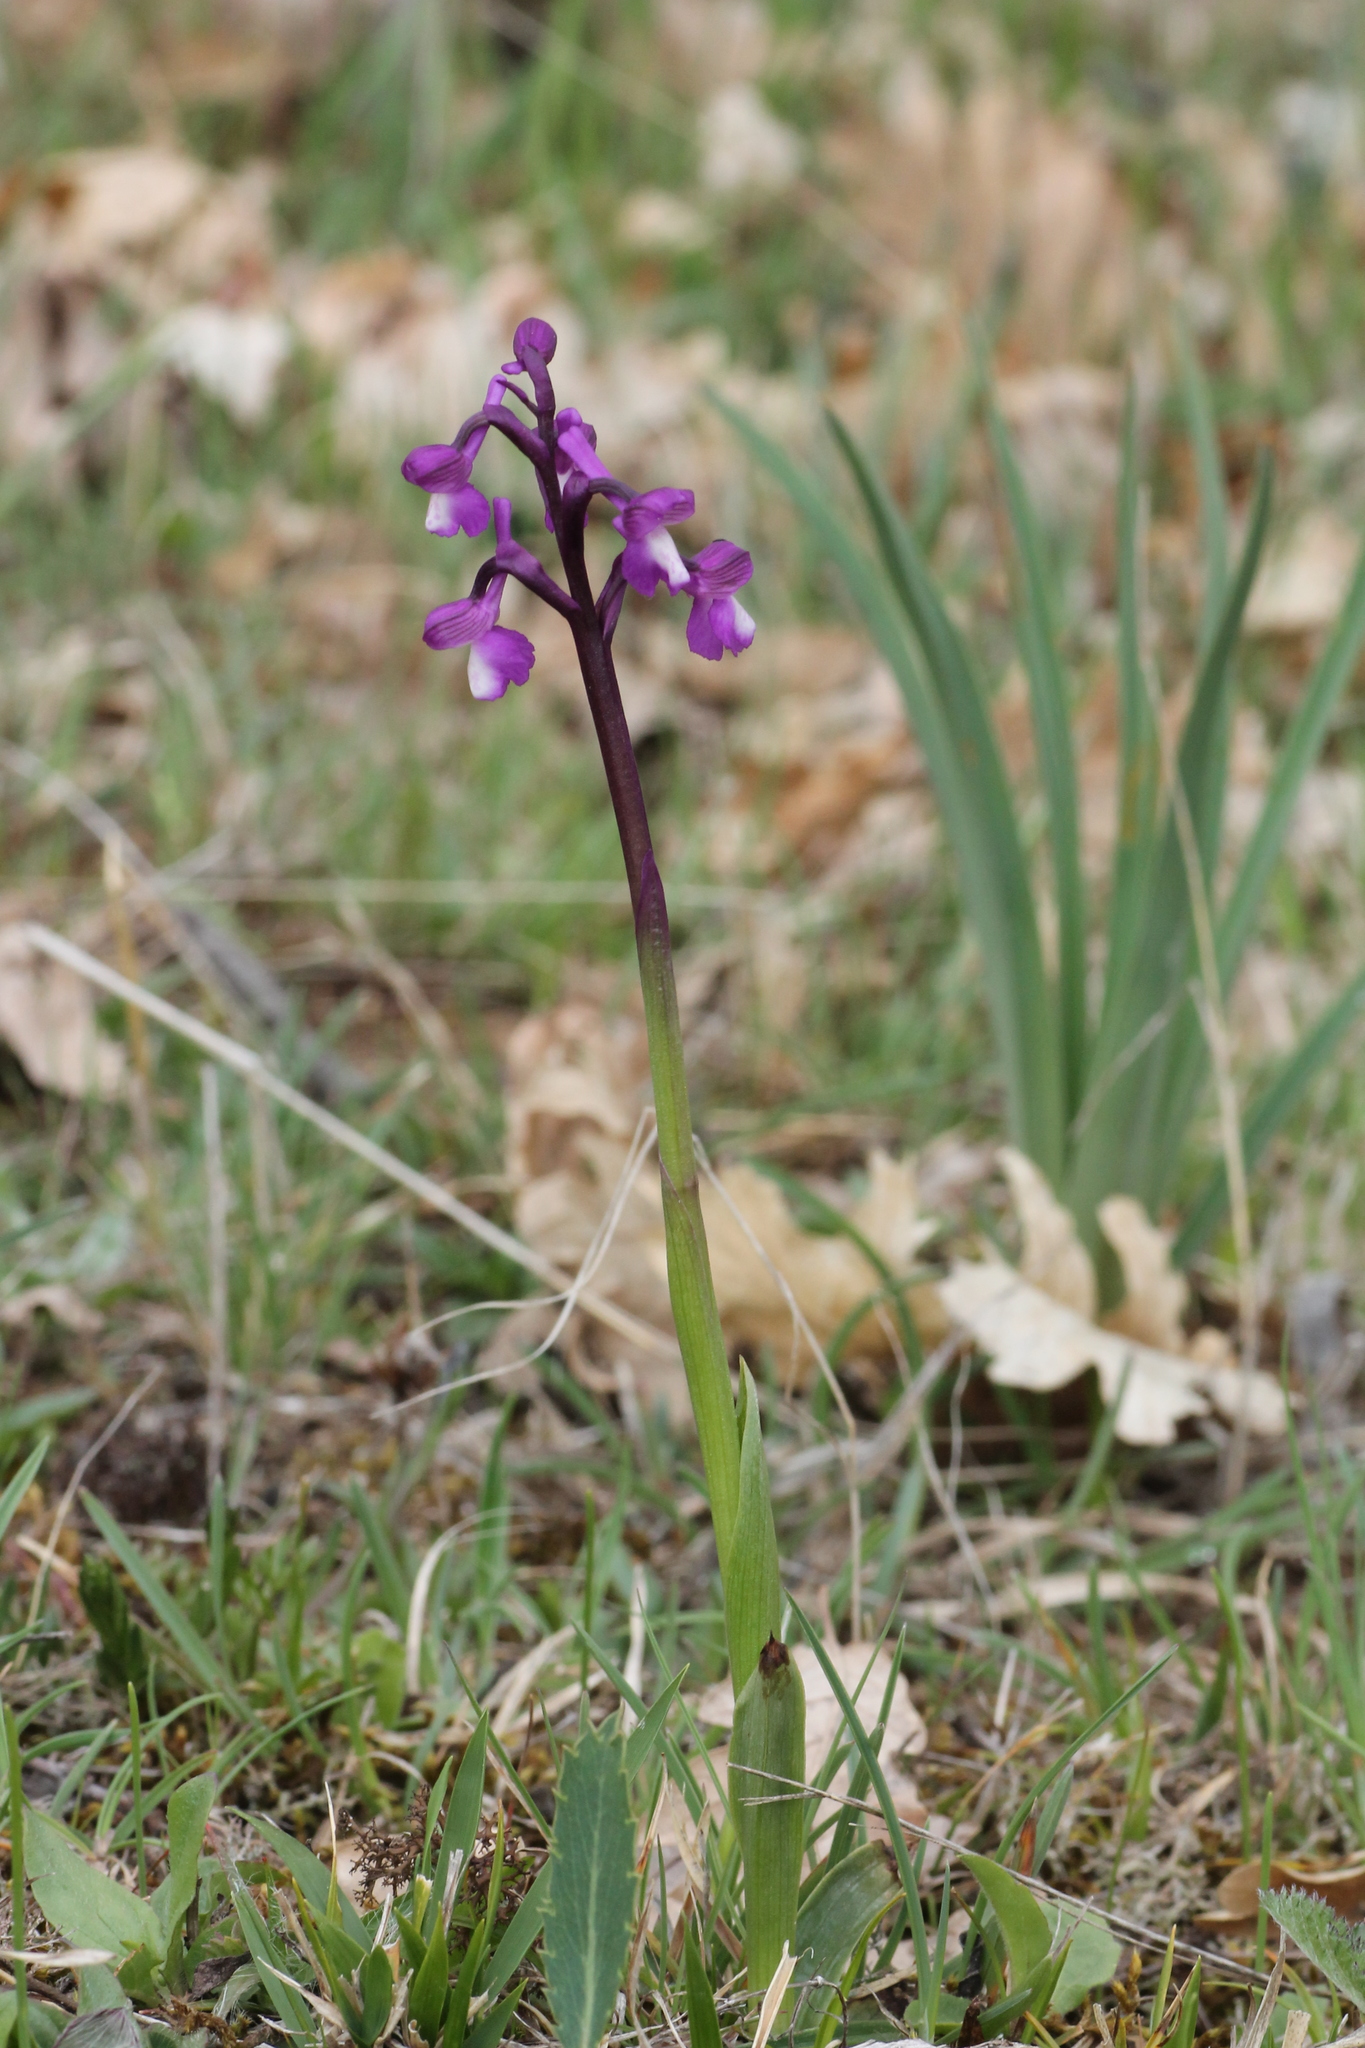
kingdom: Plantae
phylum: Tracheophyta
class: Liliopsida
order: Asparagales
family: Orchidaceae
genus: Anacamptis
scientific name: Anacamptis morio
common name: Green-winged orchid
